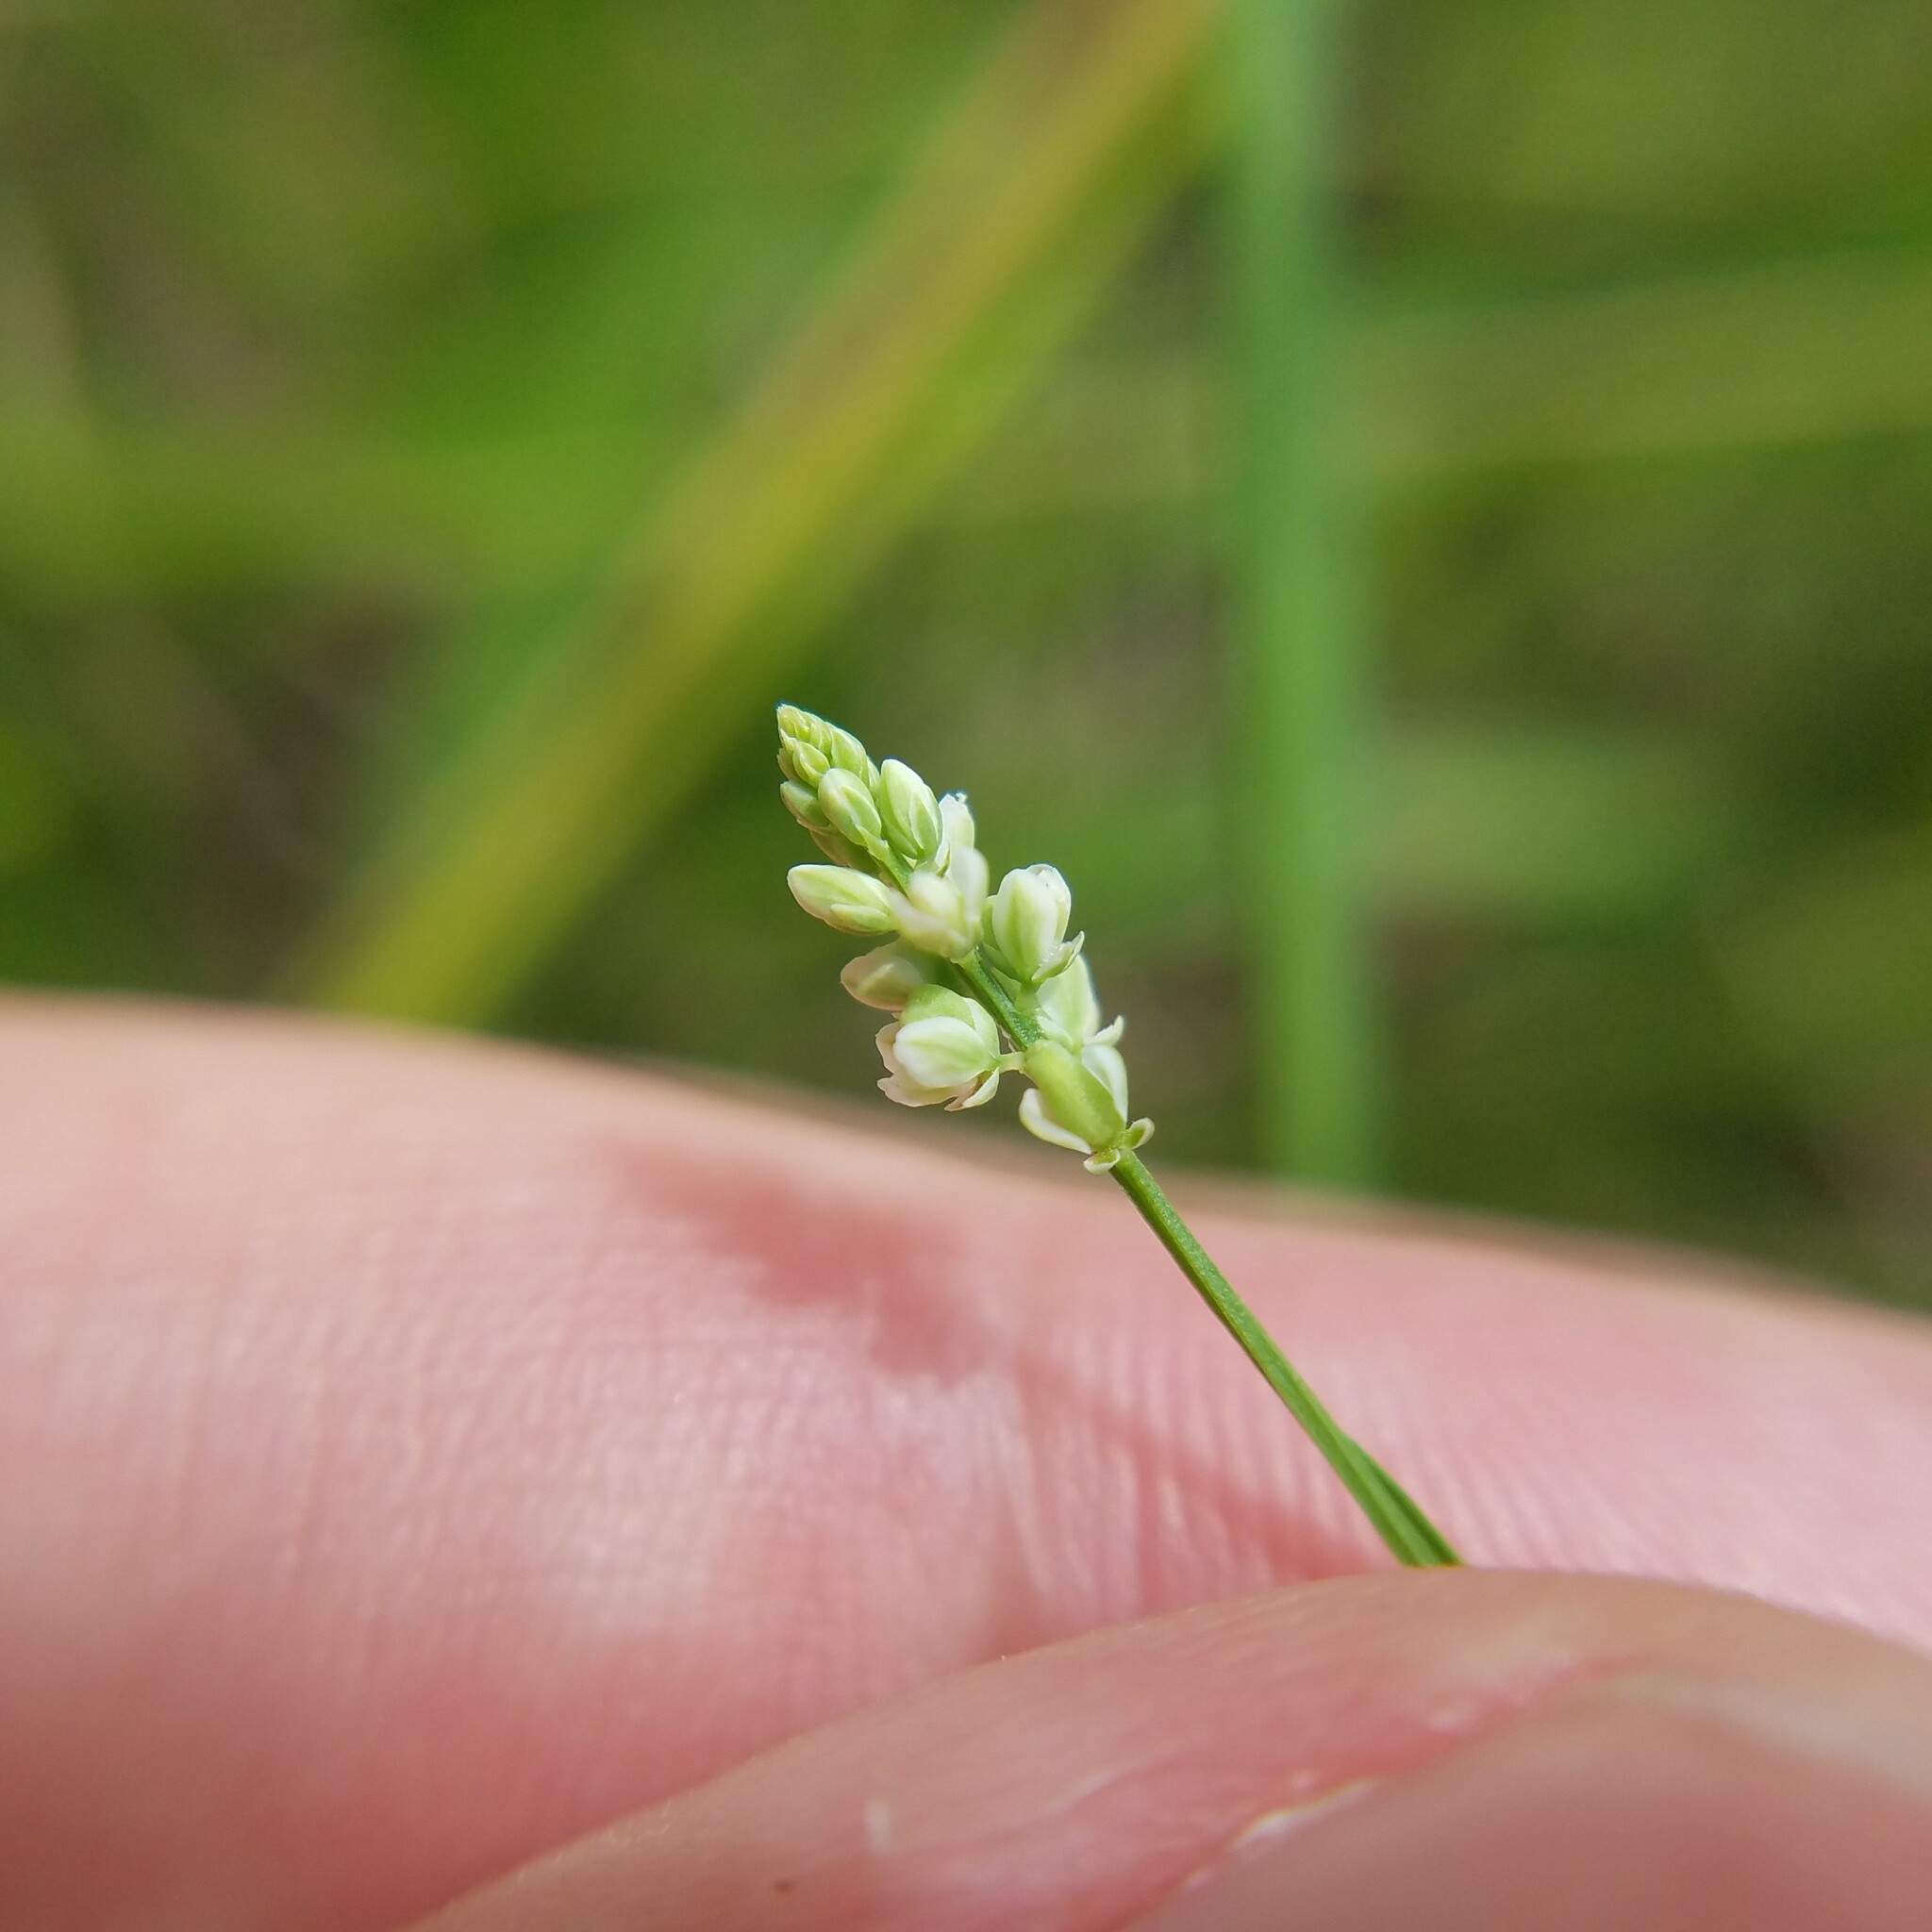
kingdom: Plantae
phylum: Tracheophyta
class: Magnoliopsida
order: Fabales
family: Polygalaceae
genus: Polygala
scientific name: Polygala verticillata
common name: Whorl milkwort
